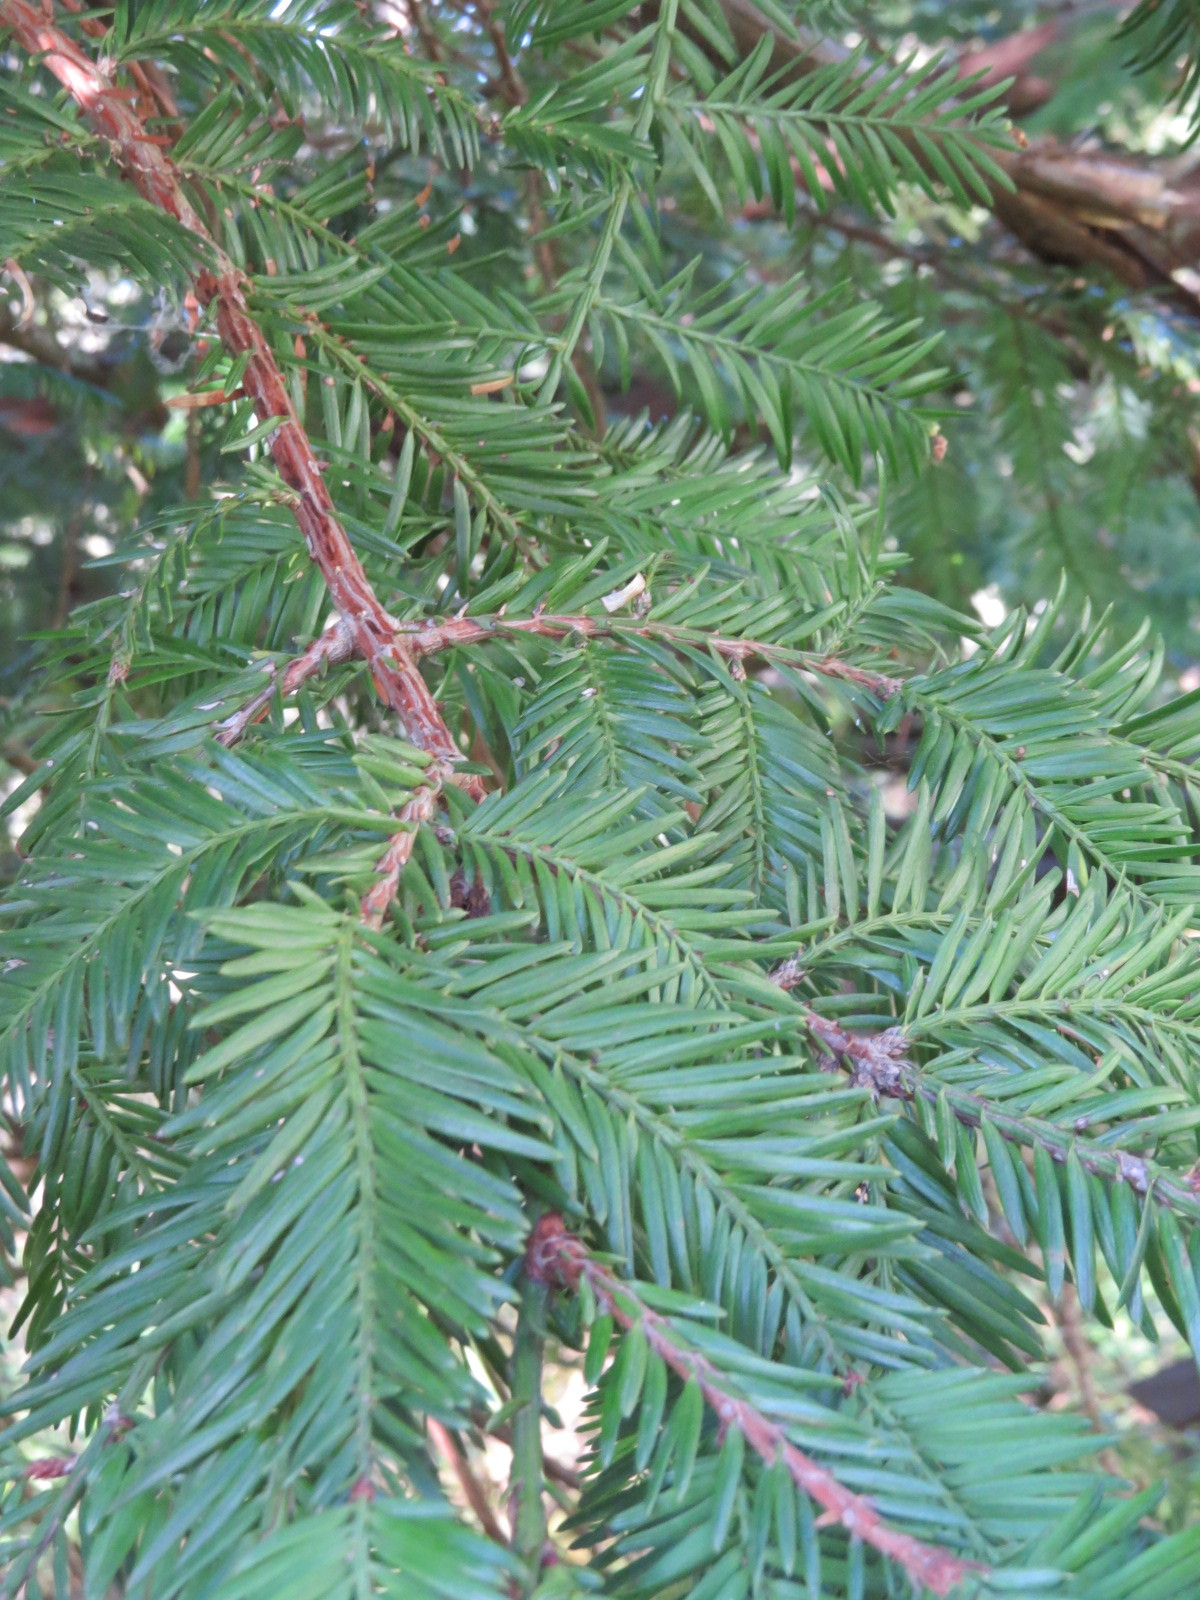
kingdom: Plantae
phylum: Tracheophyta
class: Pinopsida
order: Pinales
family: Cupressaceae
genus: Sequoia
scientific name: Sequoia sempervirens
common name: Coast redwood
